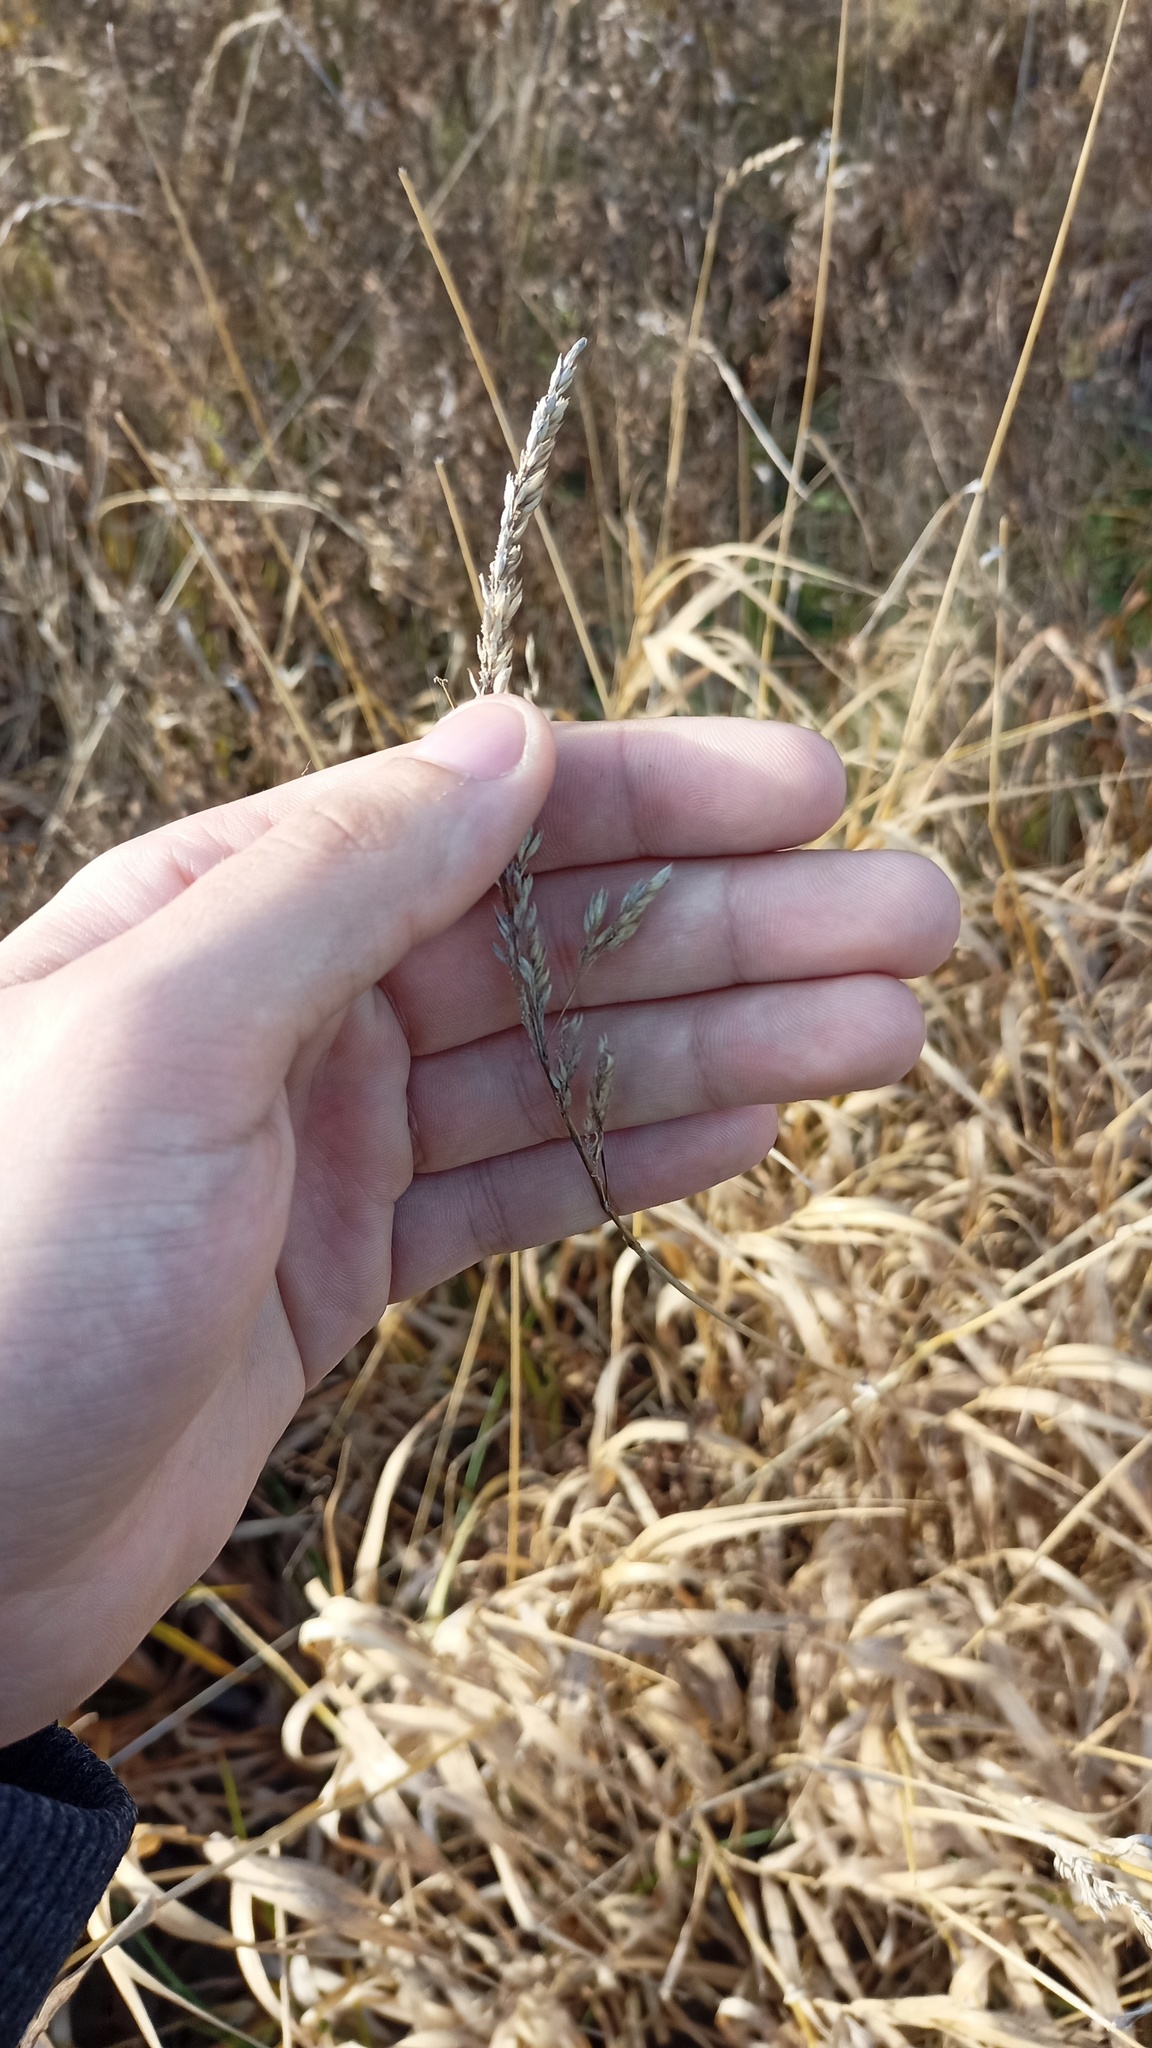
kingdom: Plantae
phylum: Tracheophyta
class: Liliopsida
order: Poales
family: Poaceae
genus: Phalaris
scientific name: Phalaris arundinacea
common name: Reed canary-grass
